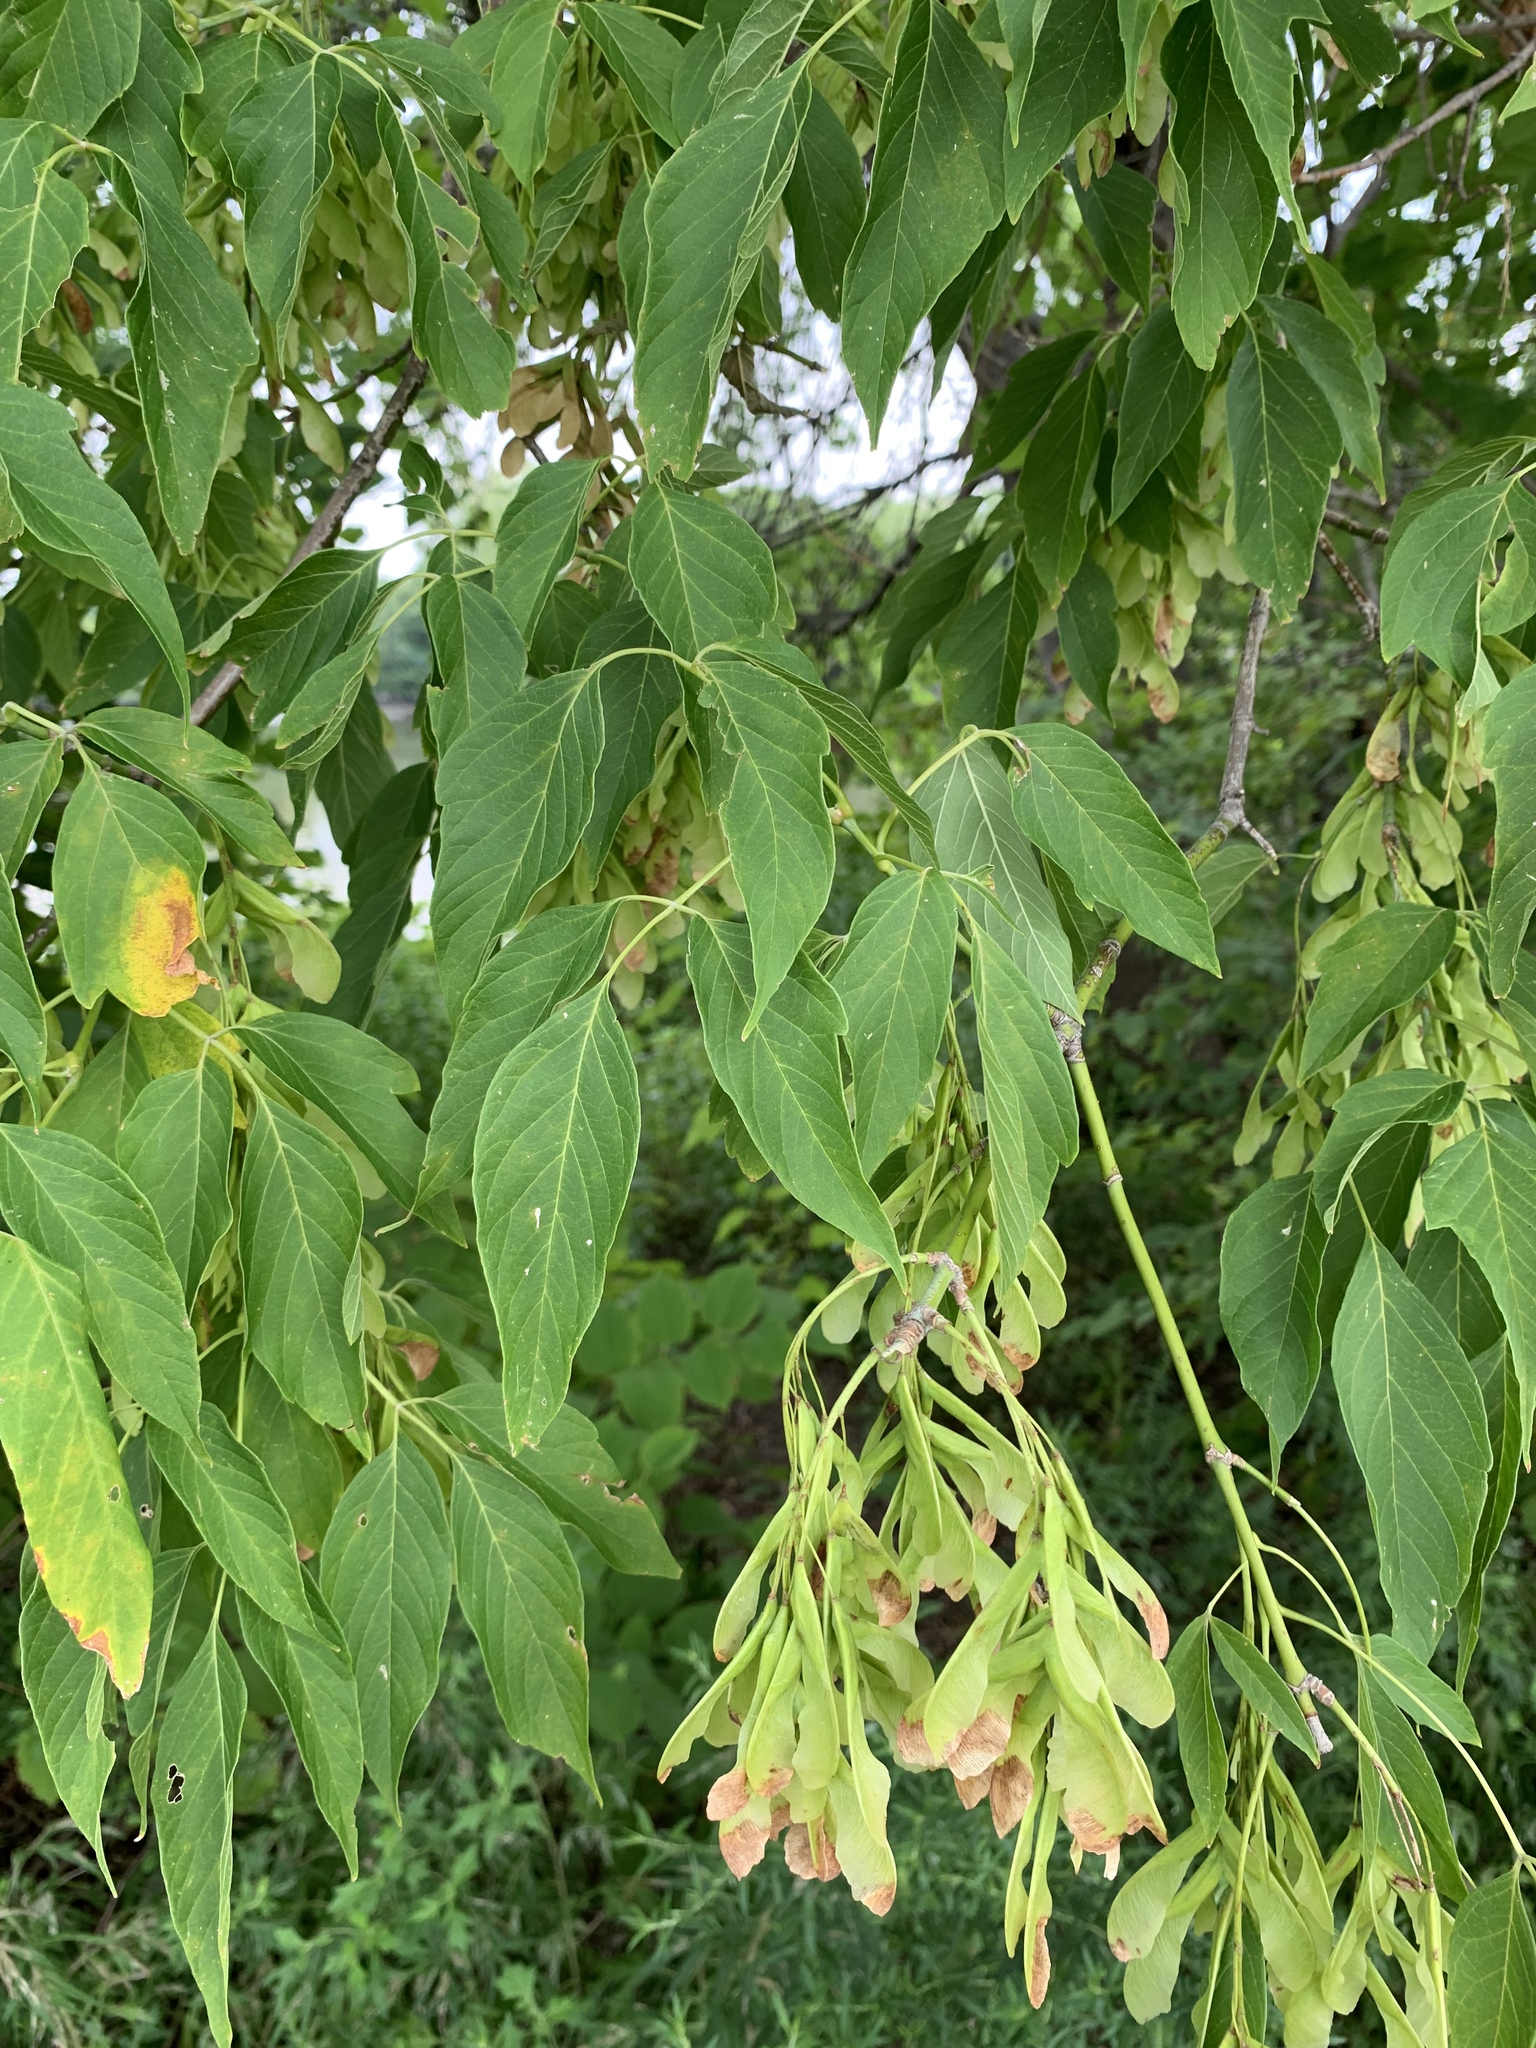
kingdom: Plantae
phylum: Tracheophyta
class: Magnoliopsida
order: Sapindales
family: Sapindaceae
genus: Acer
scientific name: Acer negundo
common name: Ashleaf maple
